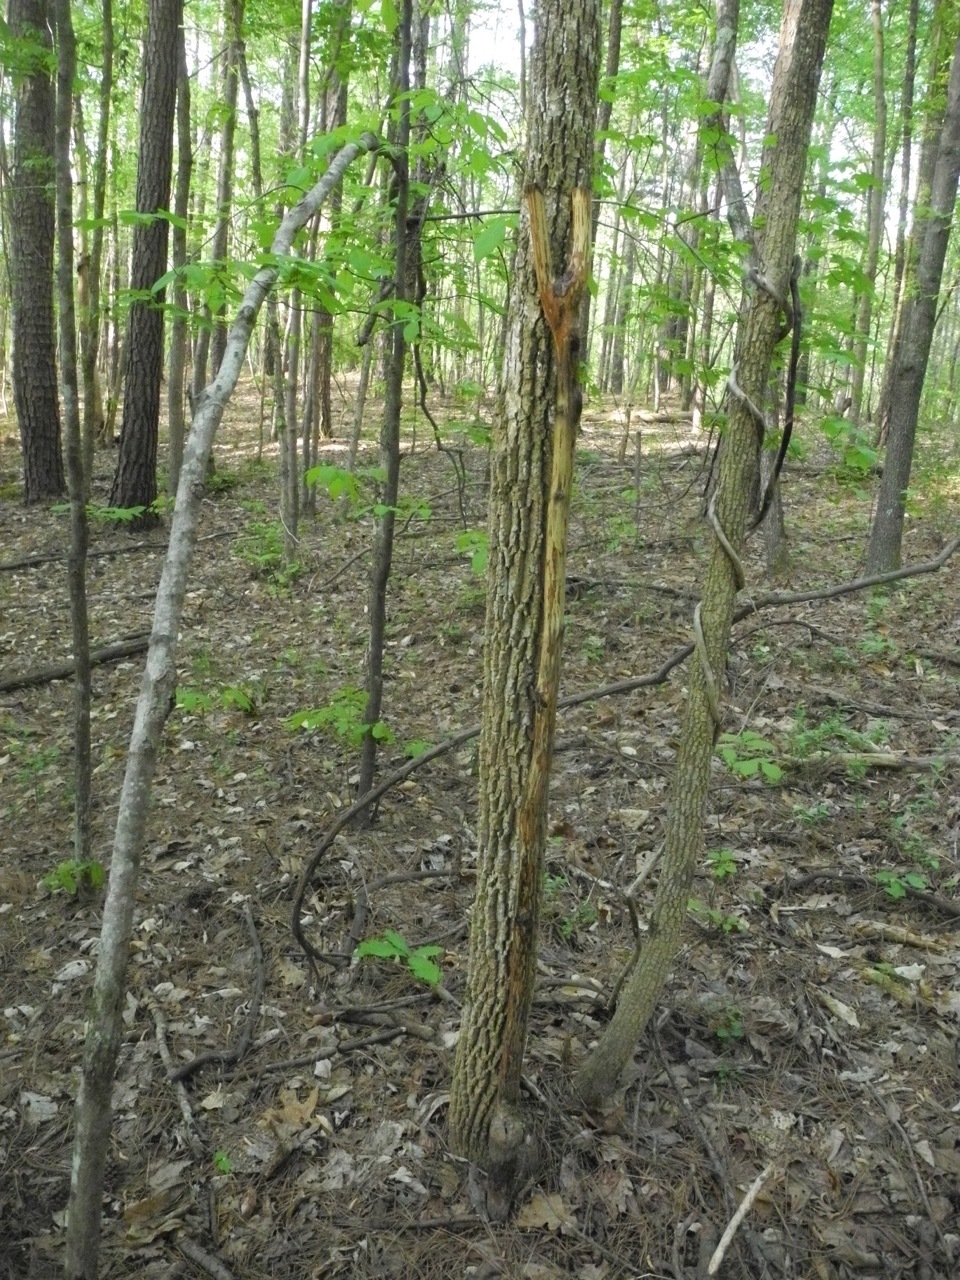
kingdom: Plantae
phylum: Tracheophyta
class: Magnoliopsida
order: Lamiales
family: Oleaceae
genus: Fraxinus
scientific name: Fraxinus pennsylvanica
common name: Green ash
